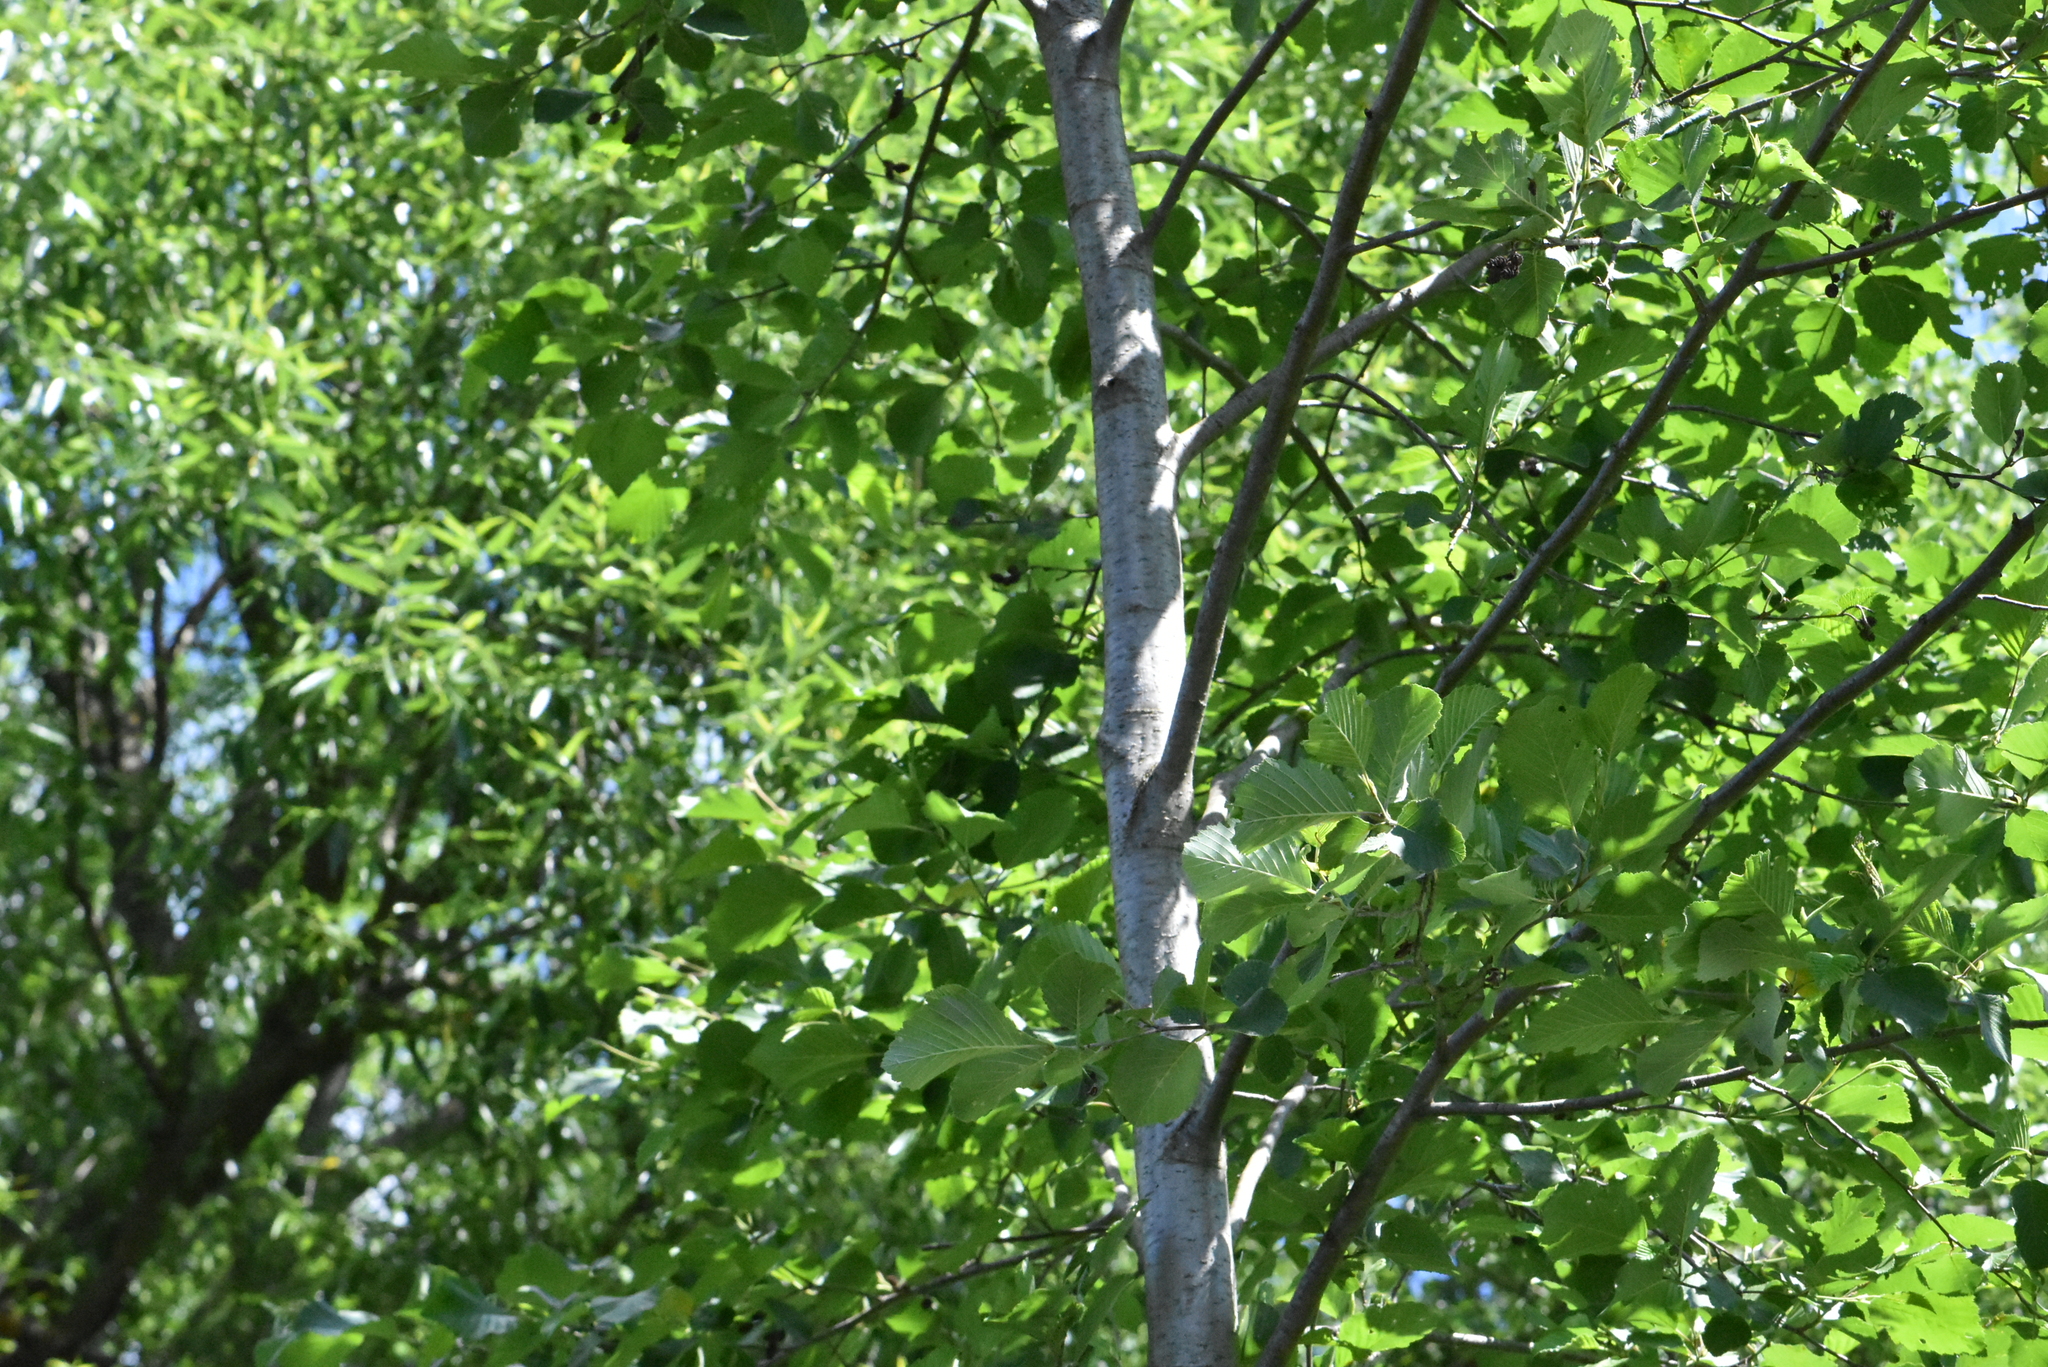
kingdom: Plantae
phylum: Tracheophyta
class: Magnoliopsida
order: Fagales
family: Betulaceae
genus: Alnus
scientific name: Alnus glutinosa
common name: Black alder
